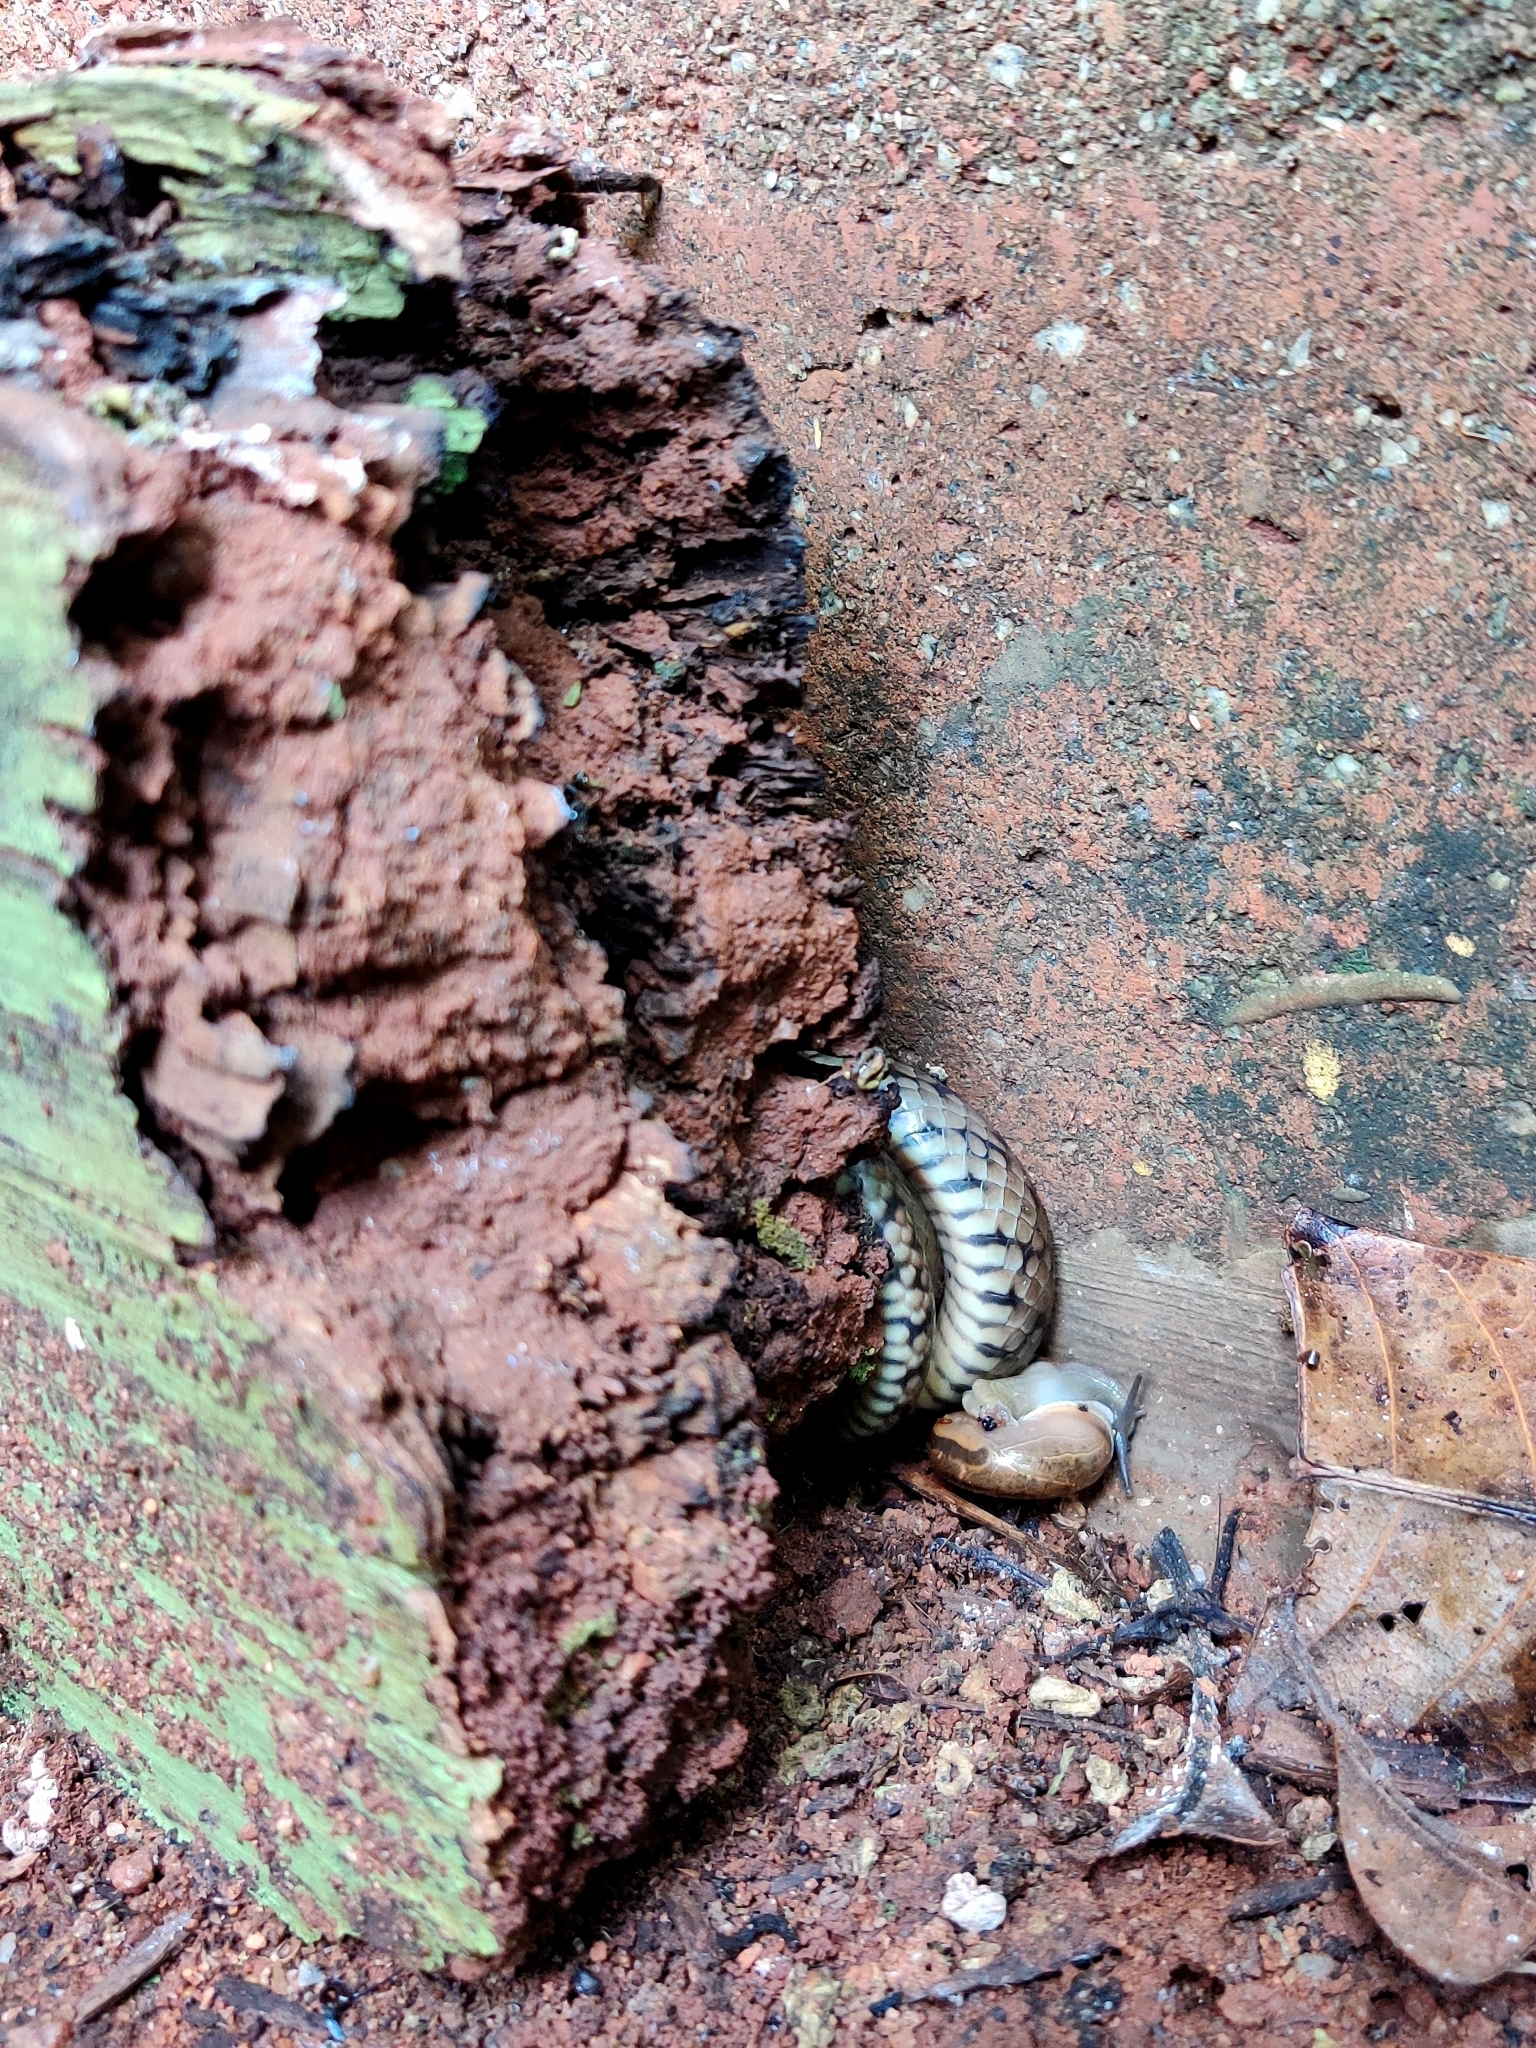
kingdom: Animalia
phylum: Chordata
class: Squamata
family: Colubridae
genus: Ptyas
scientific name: Ptyas mucosa
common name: Oriental ratsnake
